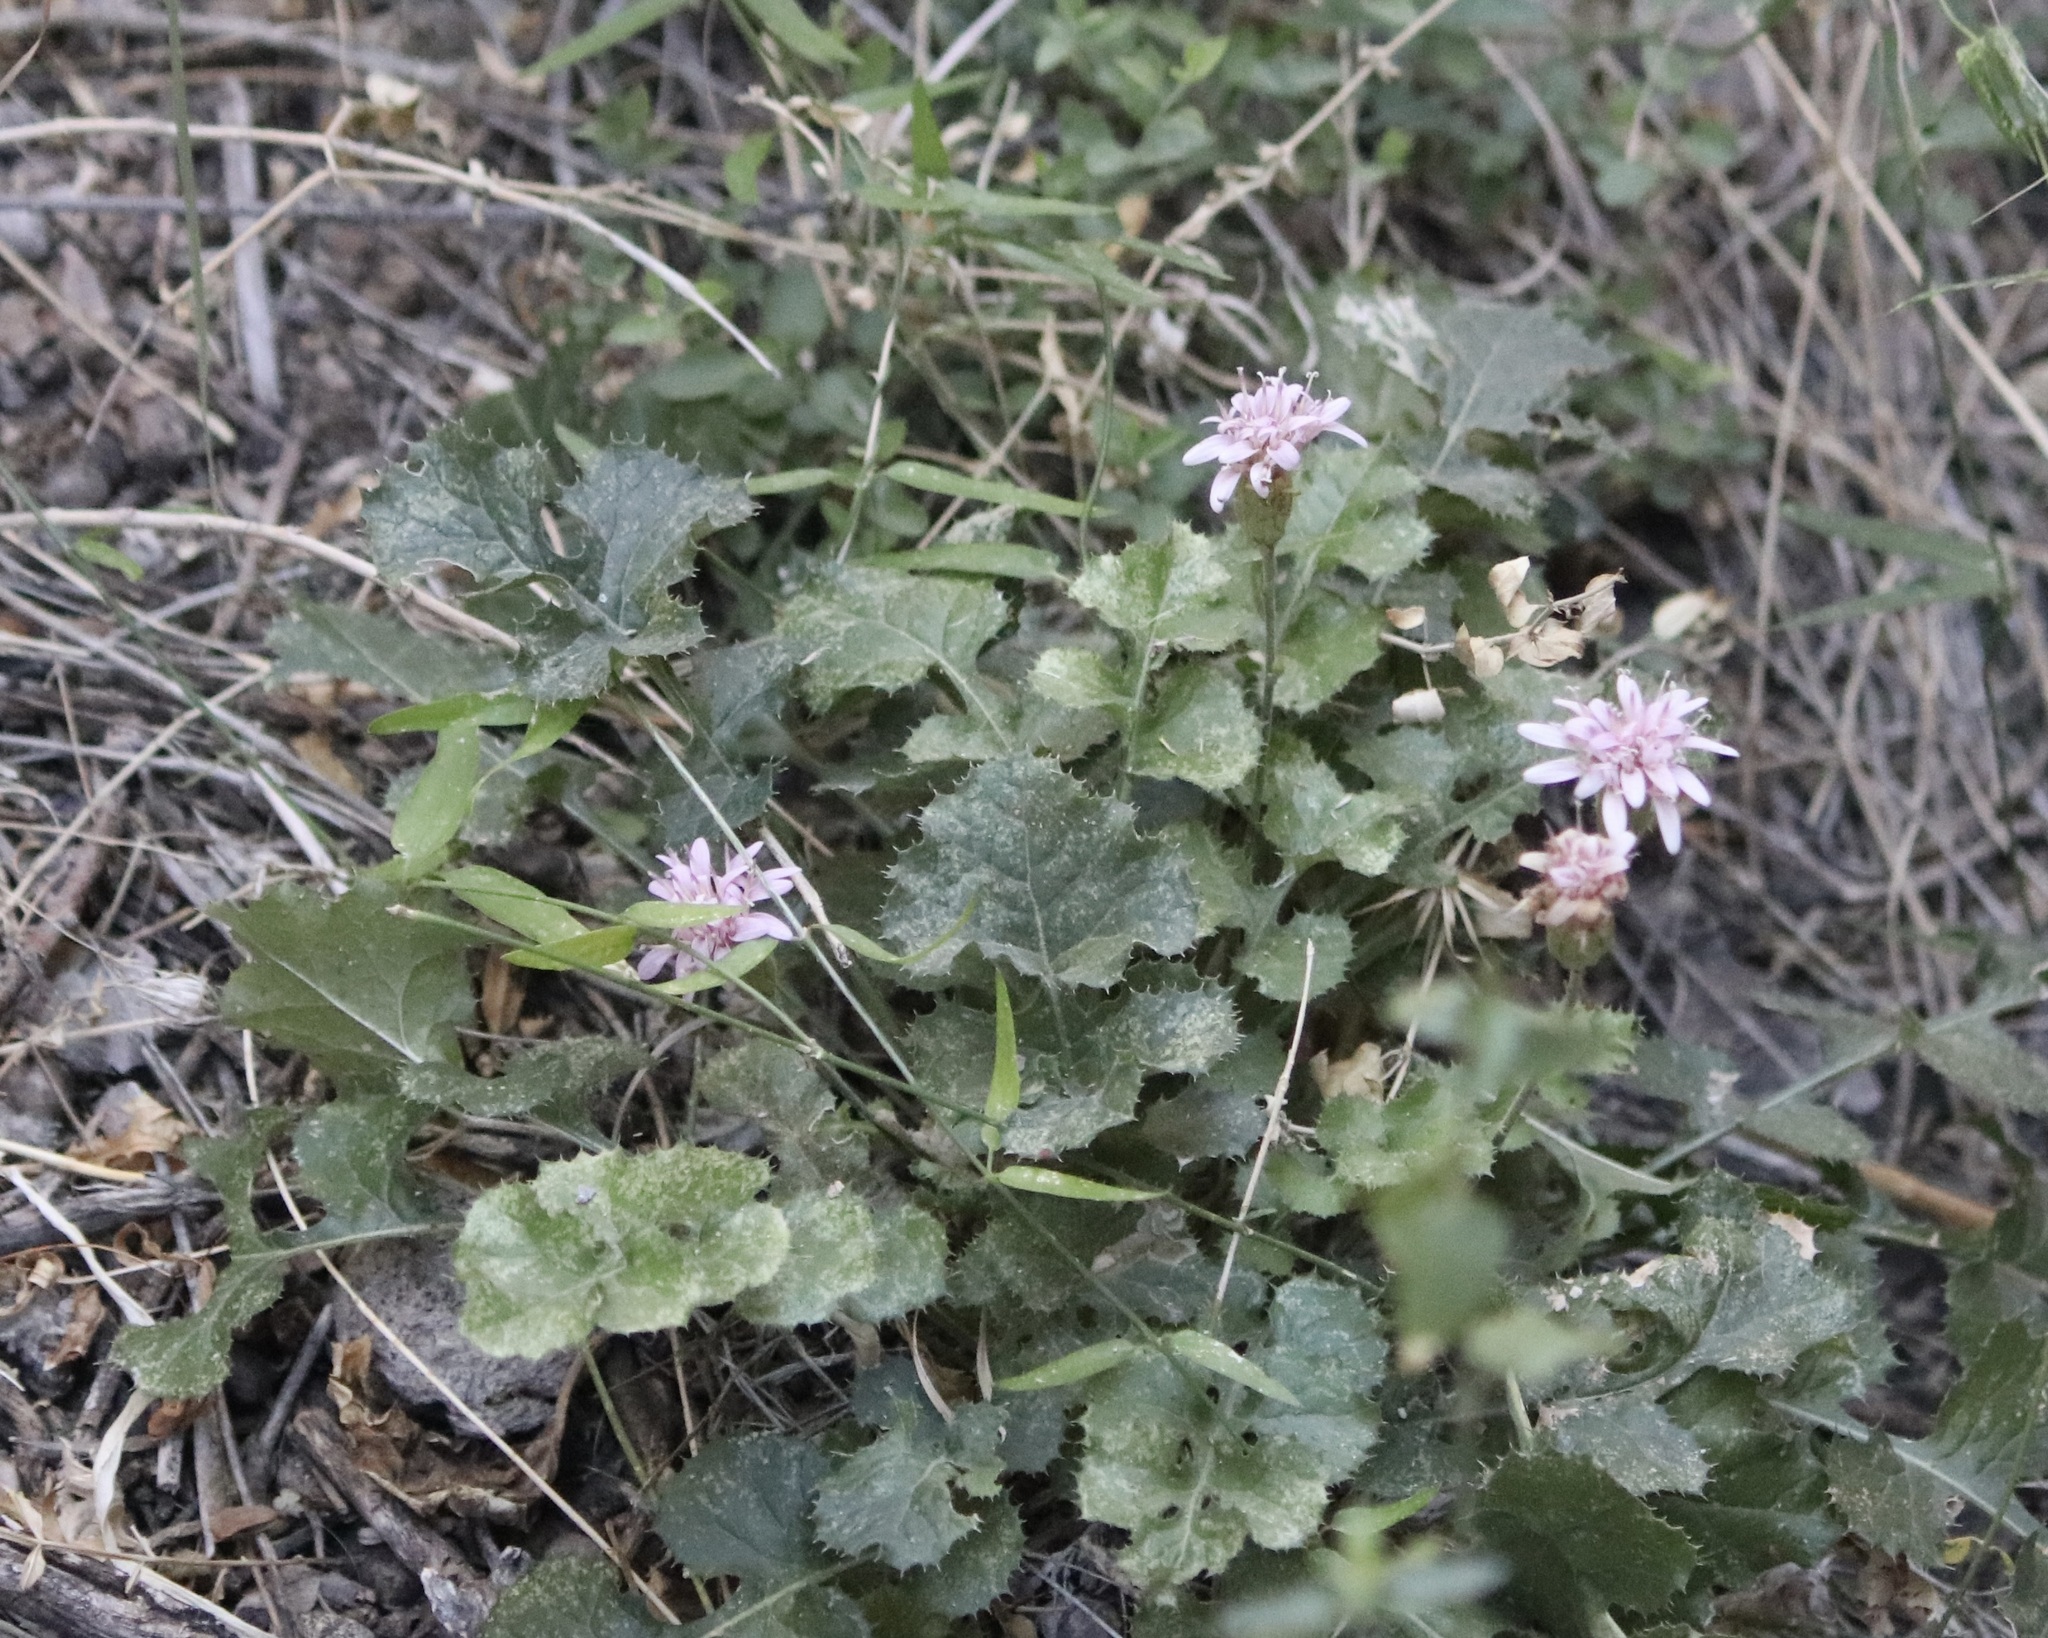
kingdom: Plantae
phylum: Tracheophyta
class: Magnoliopsida
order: Asterales
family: Asteraceae
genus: Acourtia
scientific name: Acourtia runcinata
